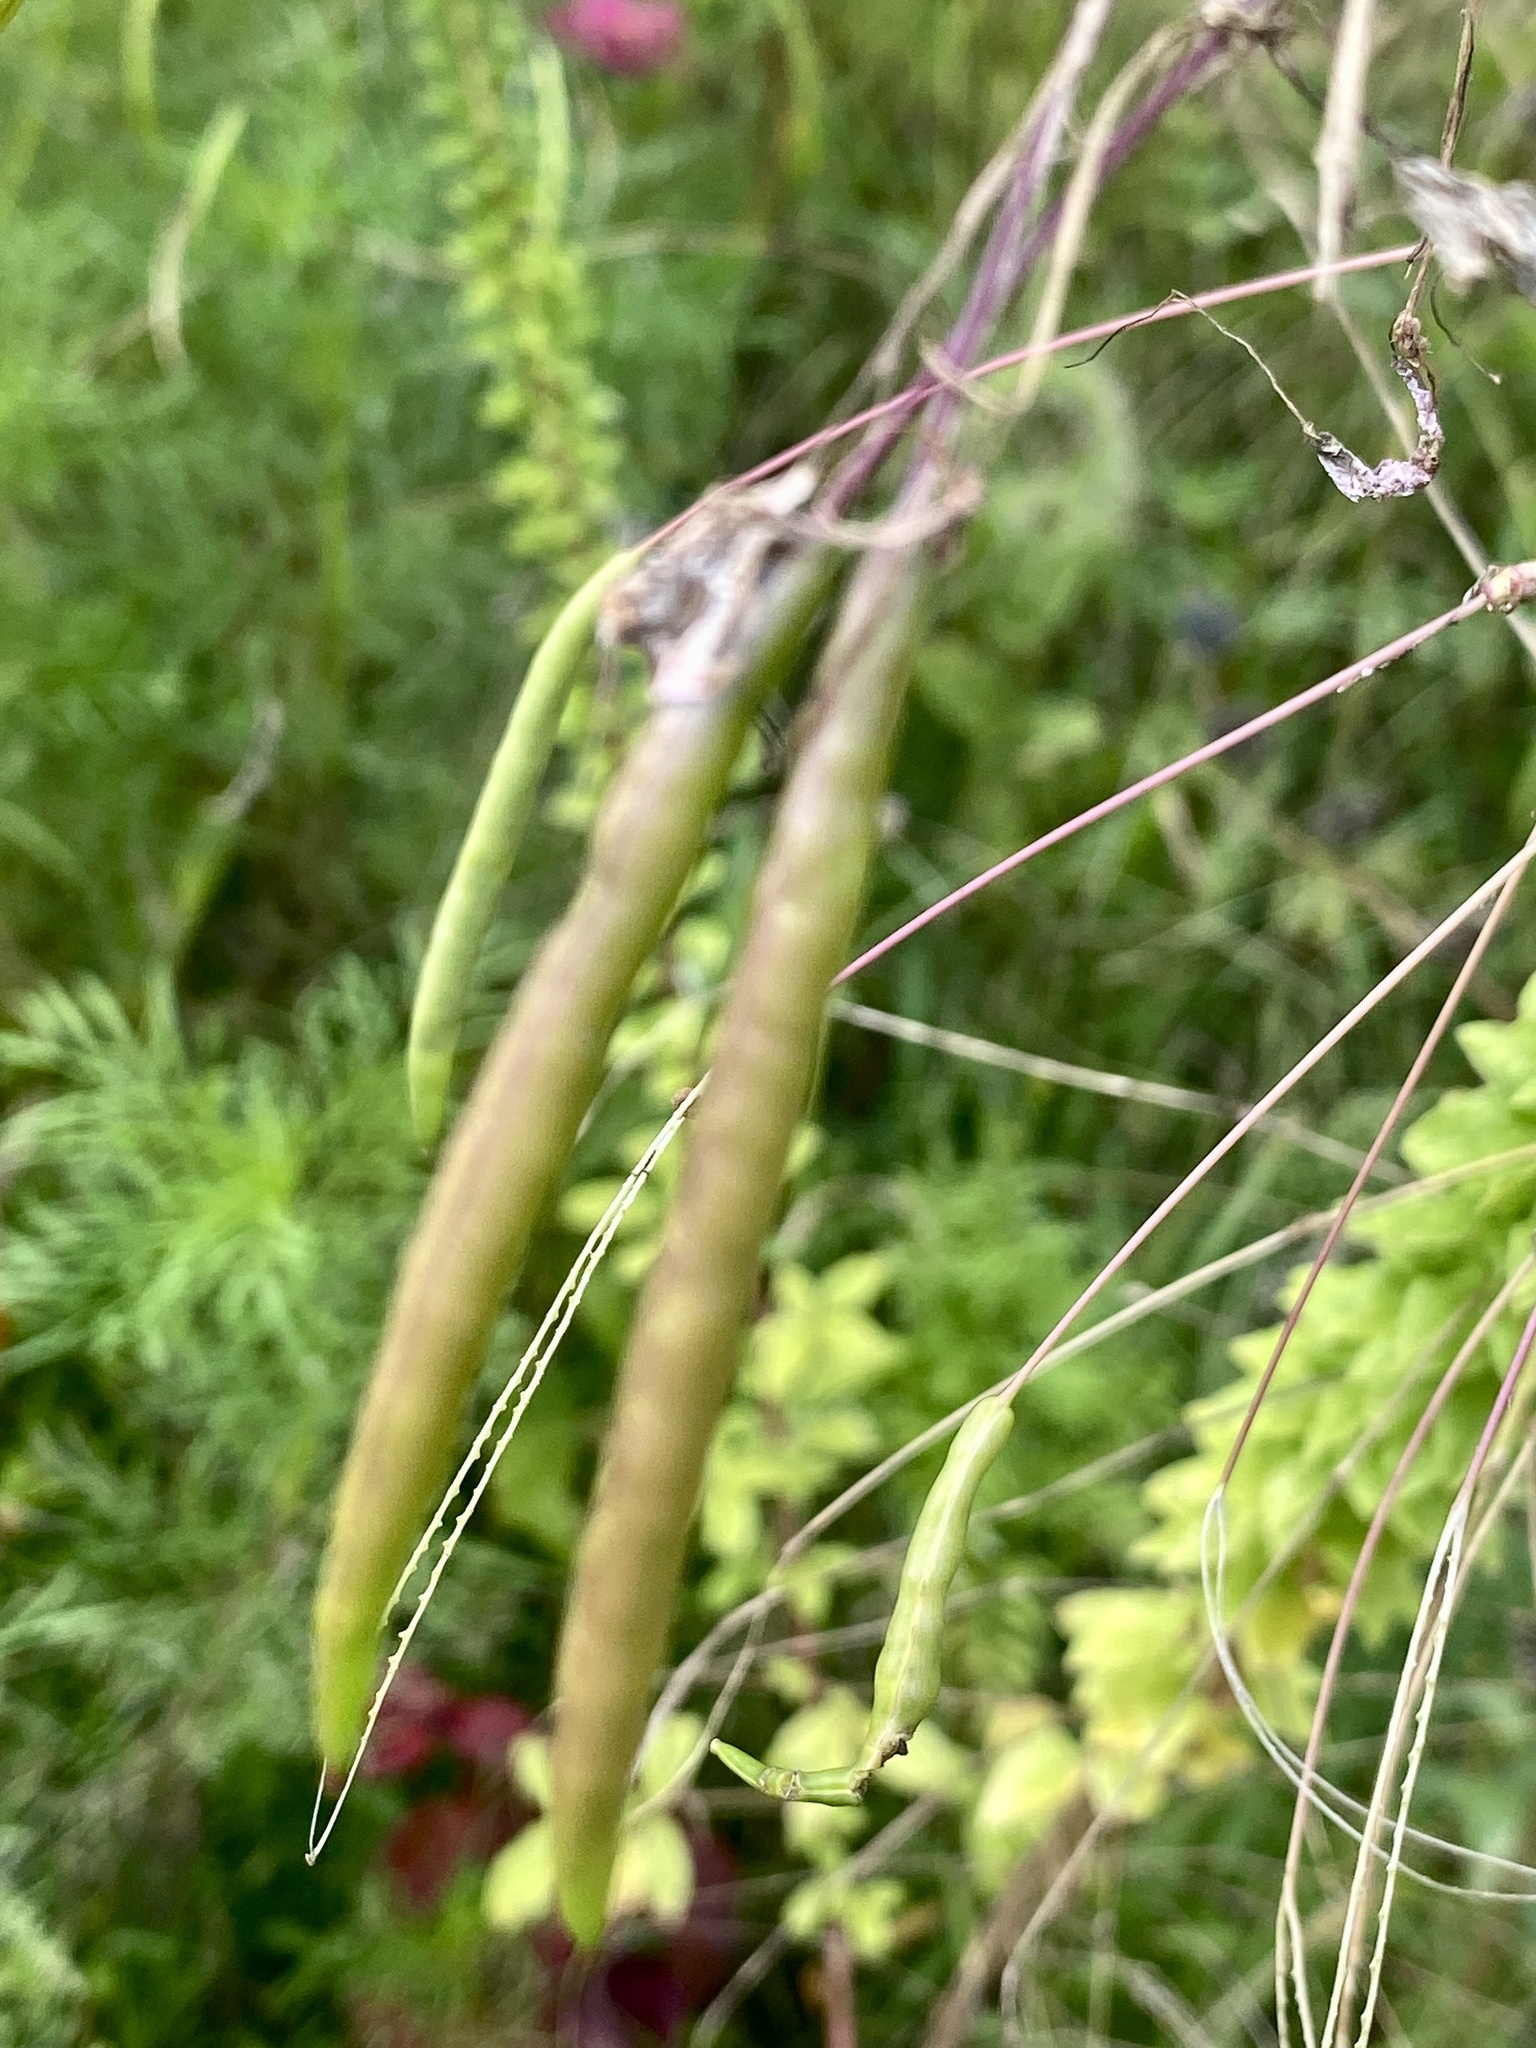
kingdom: Plantae
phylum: Tracheophyta
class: Magnoliopsida
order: Brassicales
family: Cleomaceae
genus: Tarenaya
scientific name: Tarenaya houtteana
